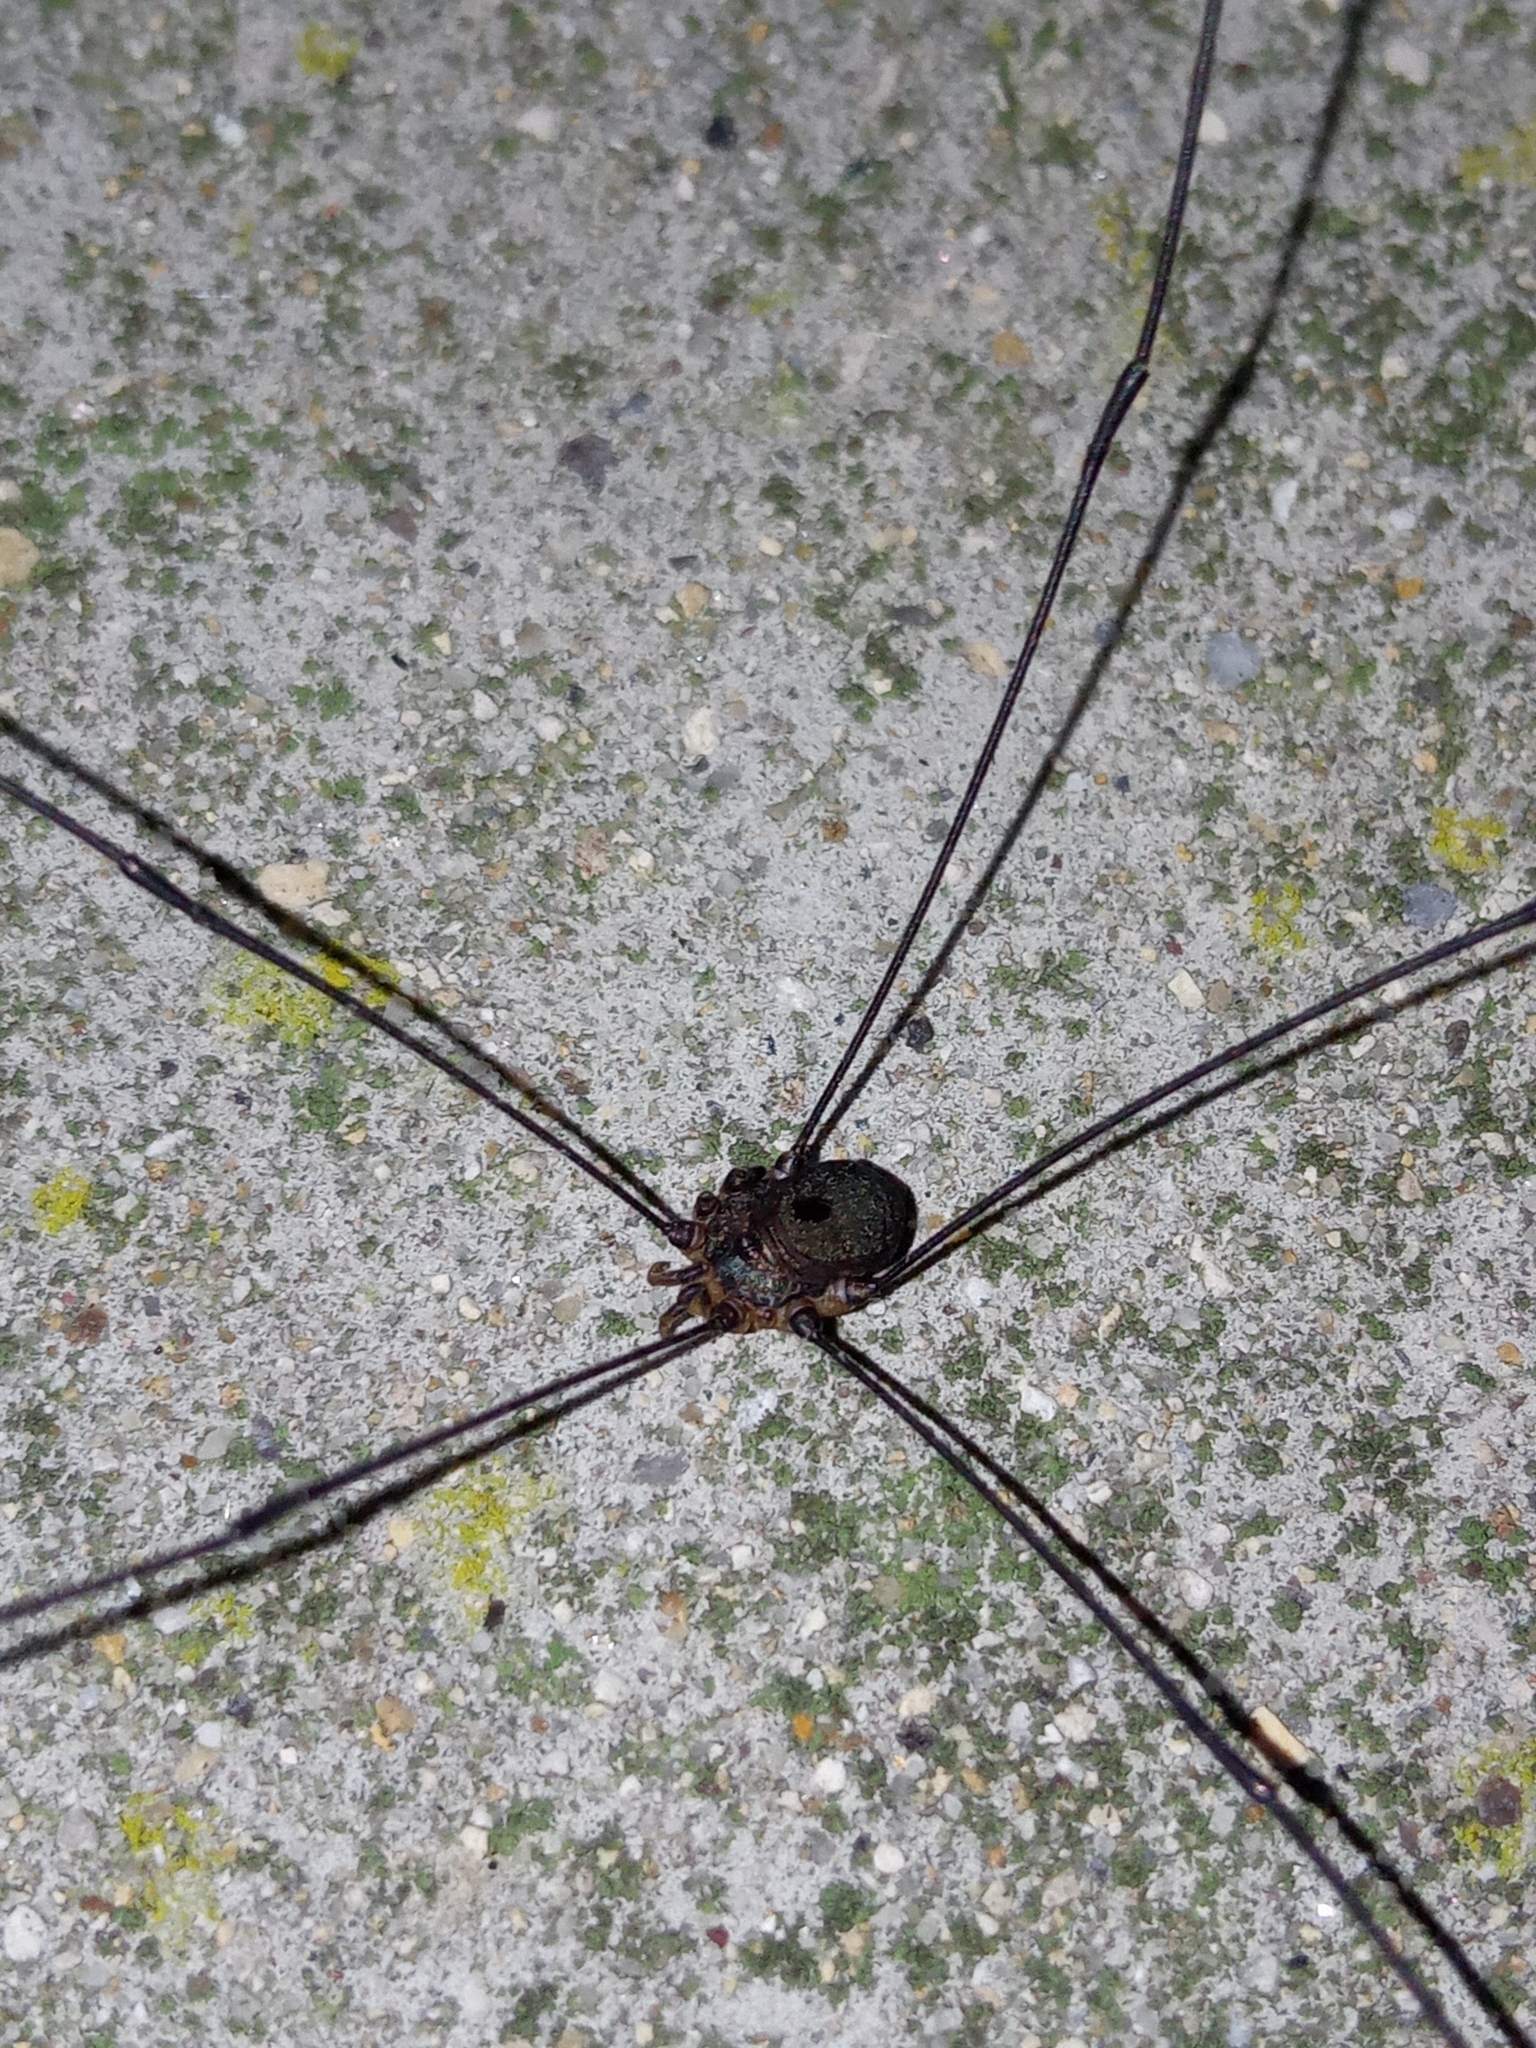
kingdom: Animalia
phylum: Arthropoda
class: Arachnida
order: Opiliones
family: Sclerosomatidae
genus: Leiobunum
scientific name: Leiobunum
